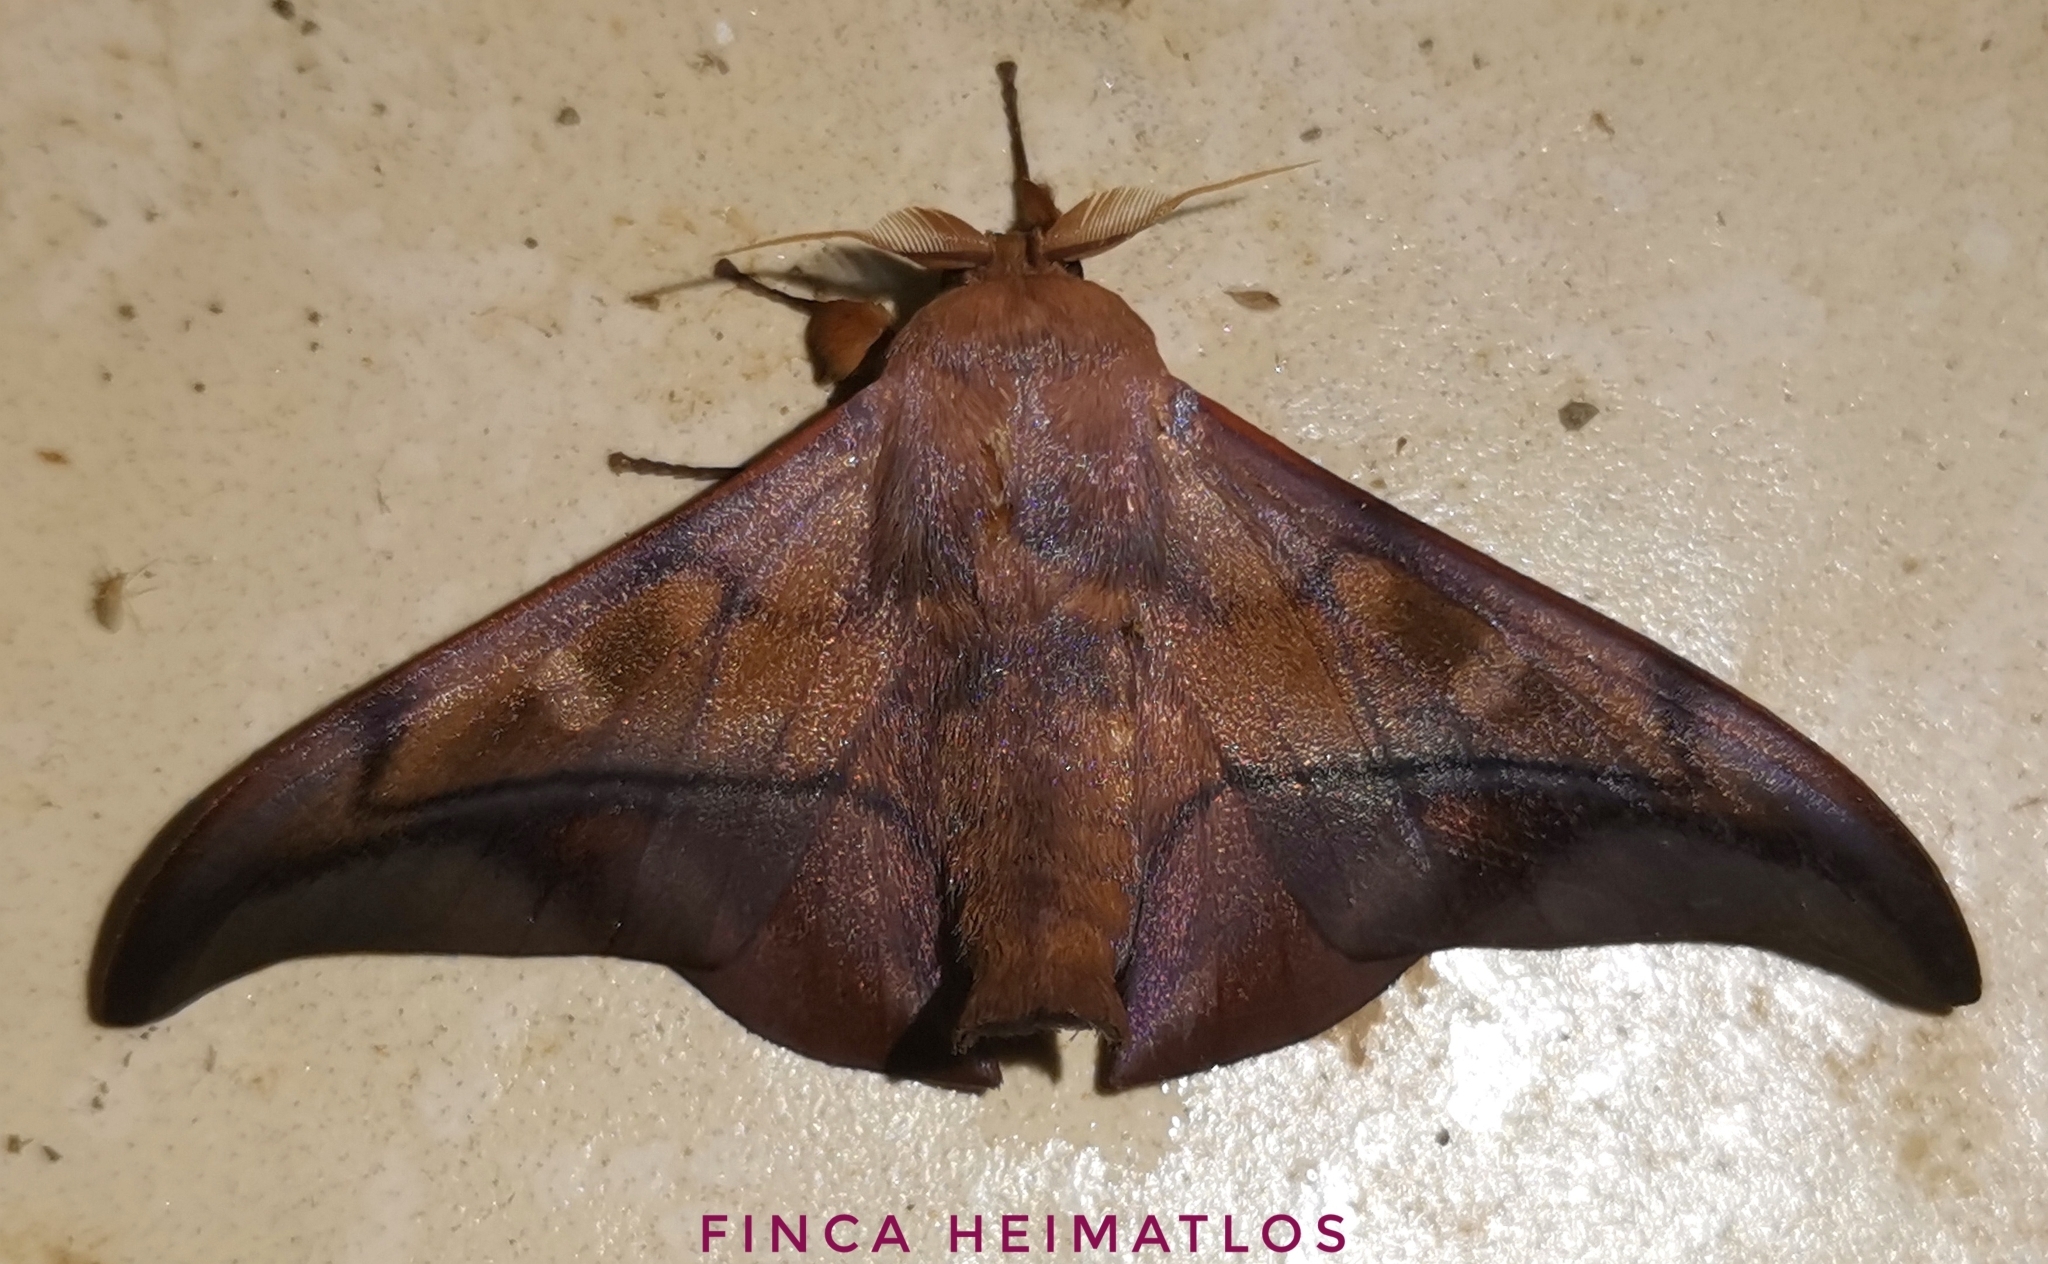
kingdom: Animalia
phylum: Arthropoda
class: Insecta
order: Lepidoptera
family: Mimallonidae
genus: Cicinnus
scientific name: Cicinnus anysia
